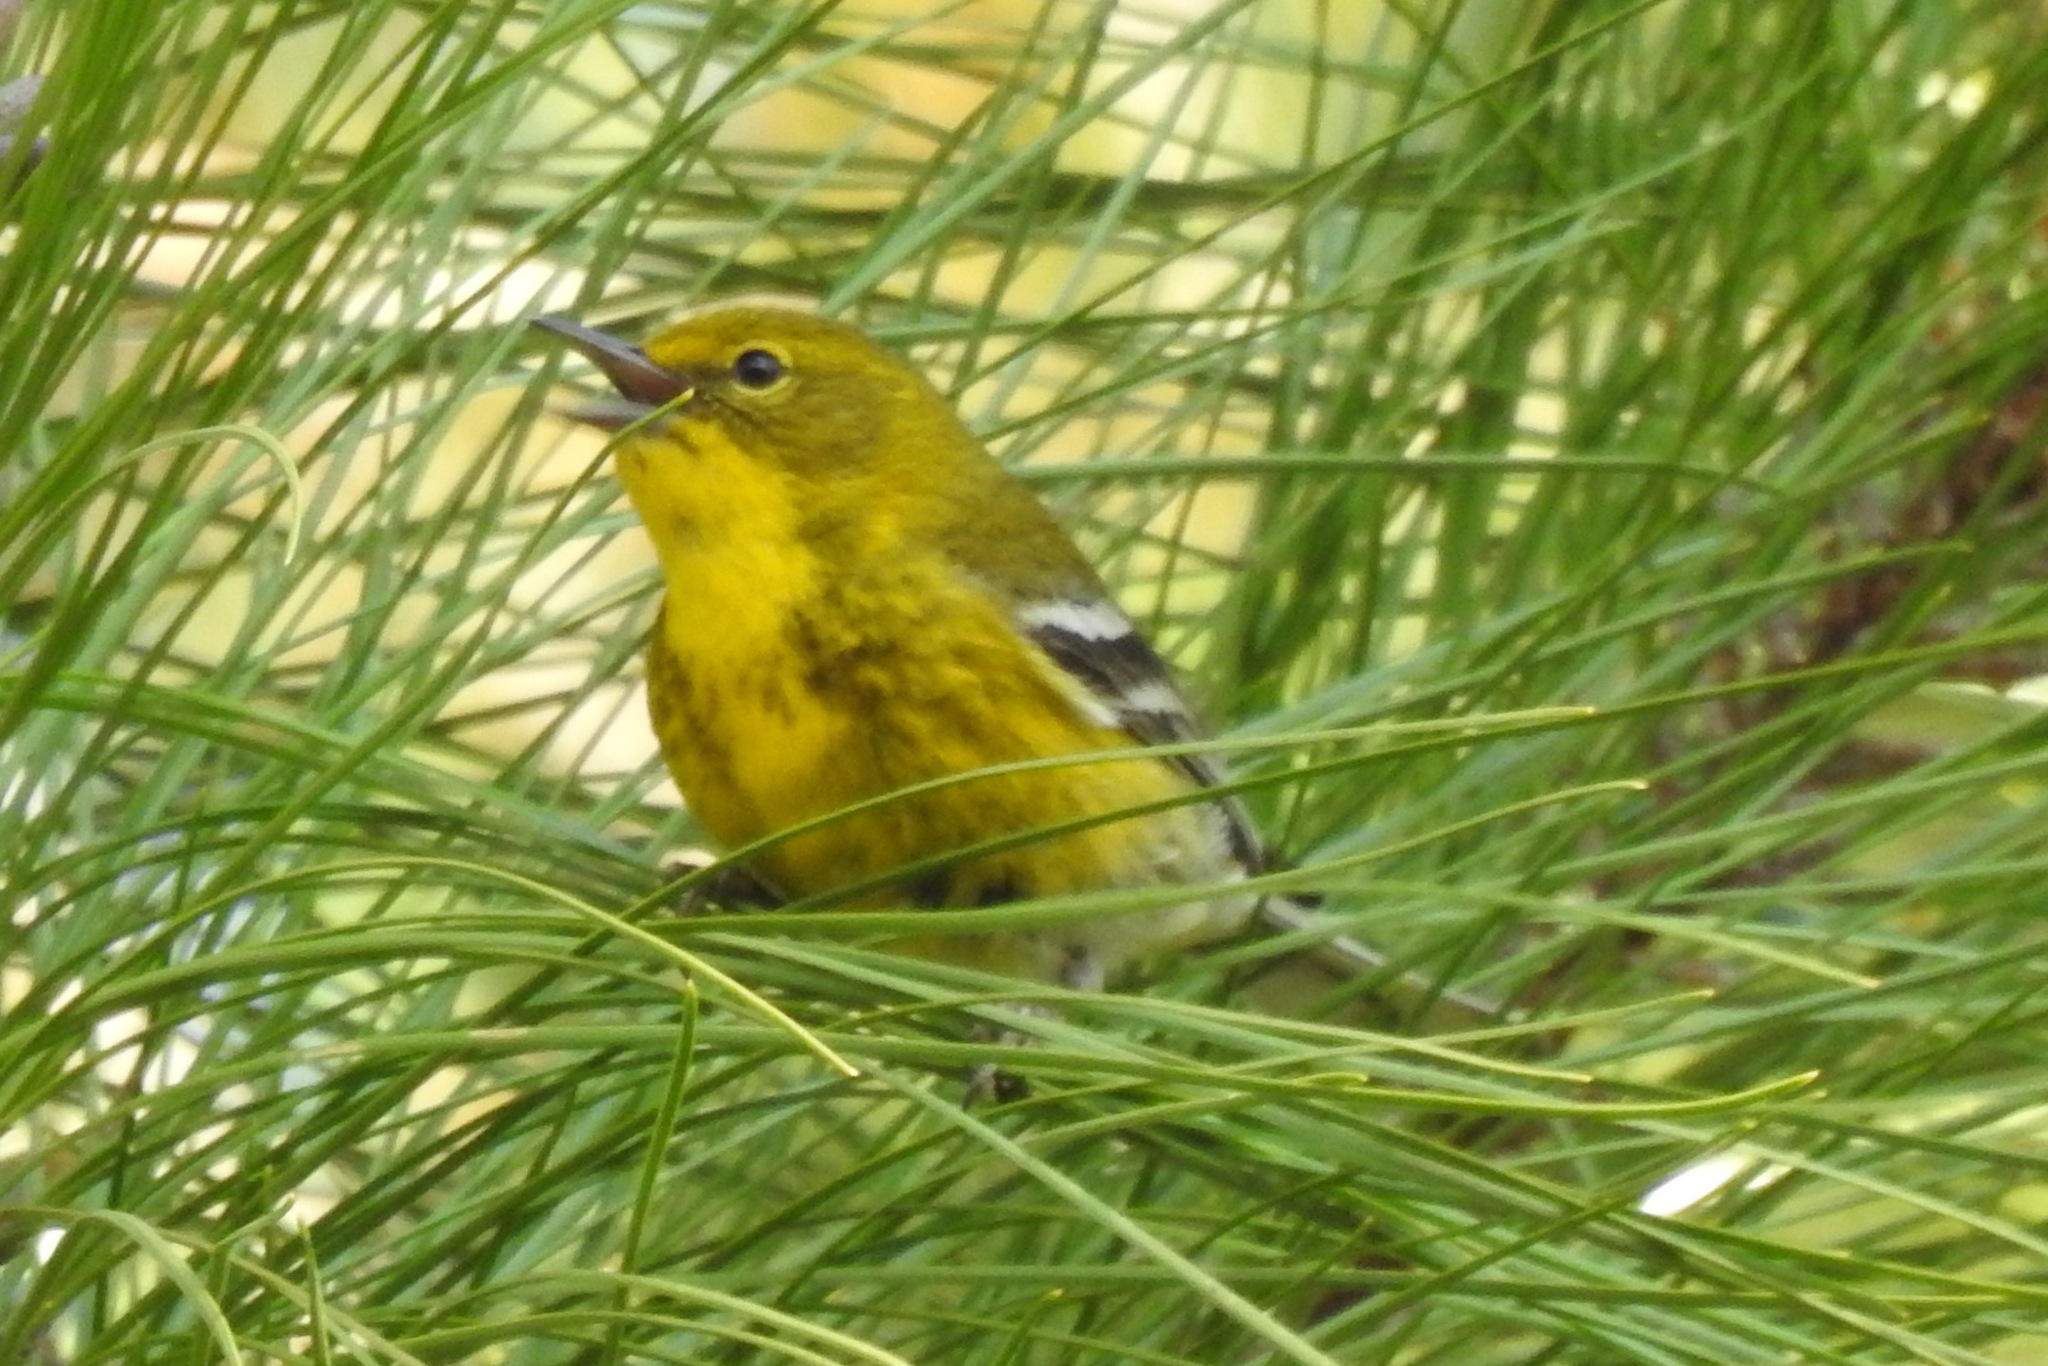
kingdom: Animalia
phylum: Chordata
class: Aves
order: Passeriformes
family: Parulidae
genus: Setophaga
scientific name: Setophaga pinus
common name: Pine warbler
